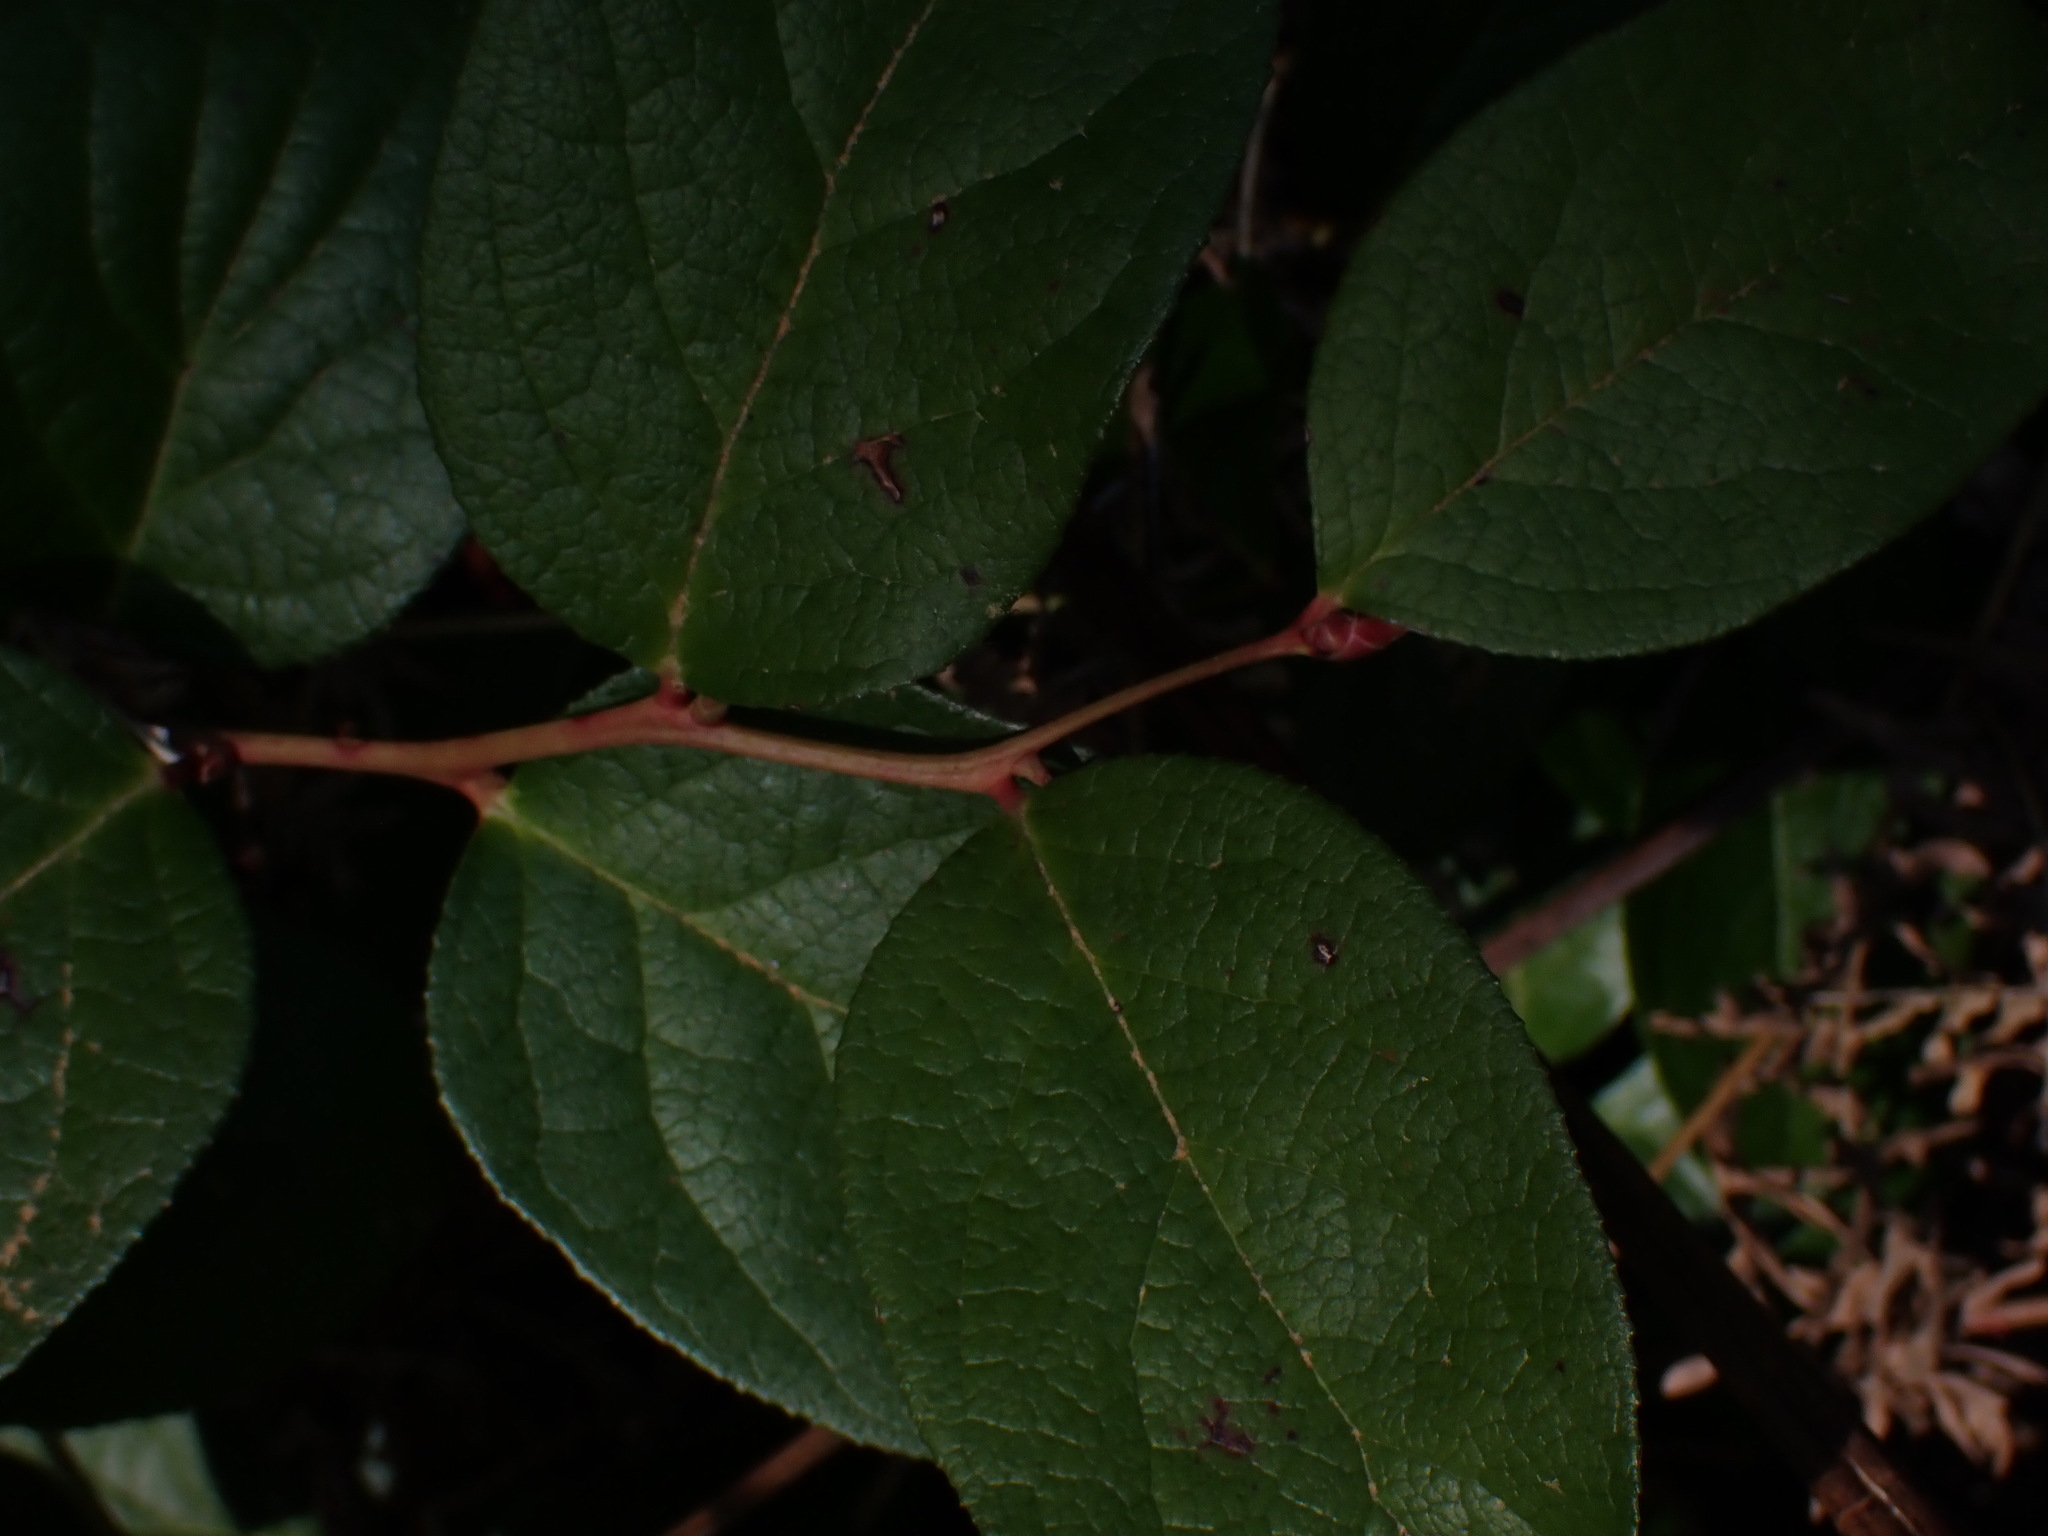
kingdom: Plantae
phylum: Tracheophyta
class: Magnoliopsida
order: Ericales
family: Ericaceae
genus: Gaultheria
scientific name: Gaultheria shallon
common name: Shallon
